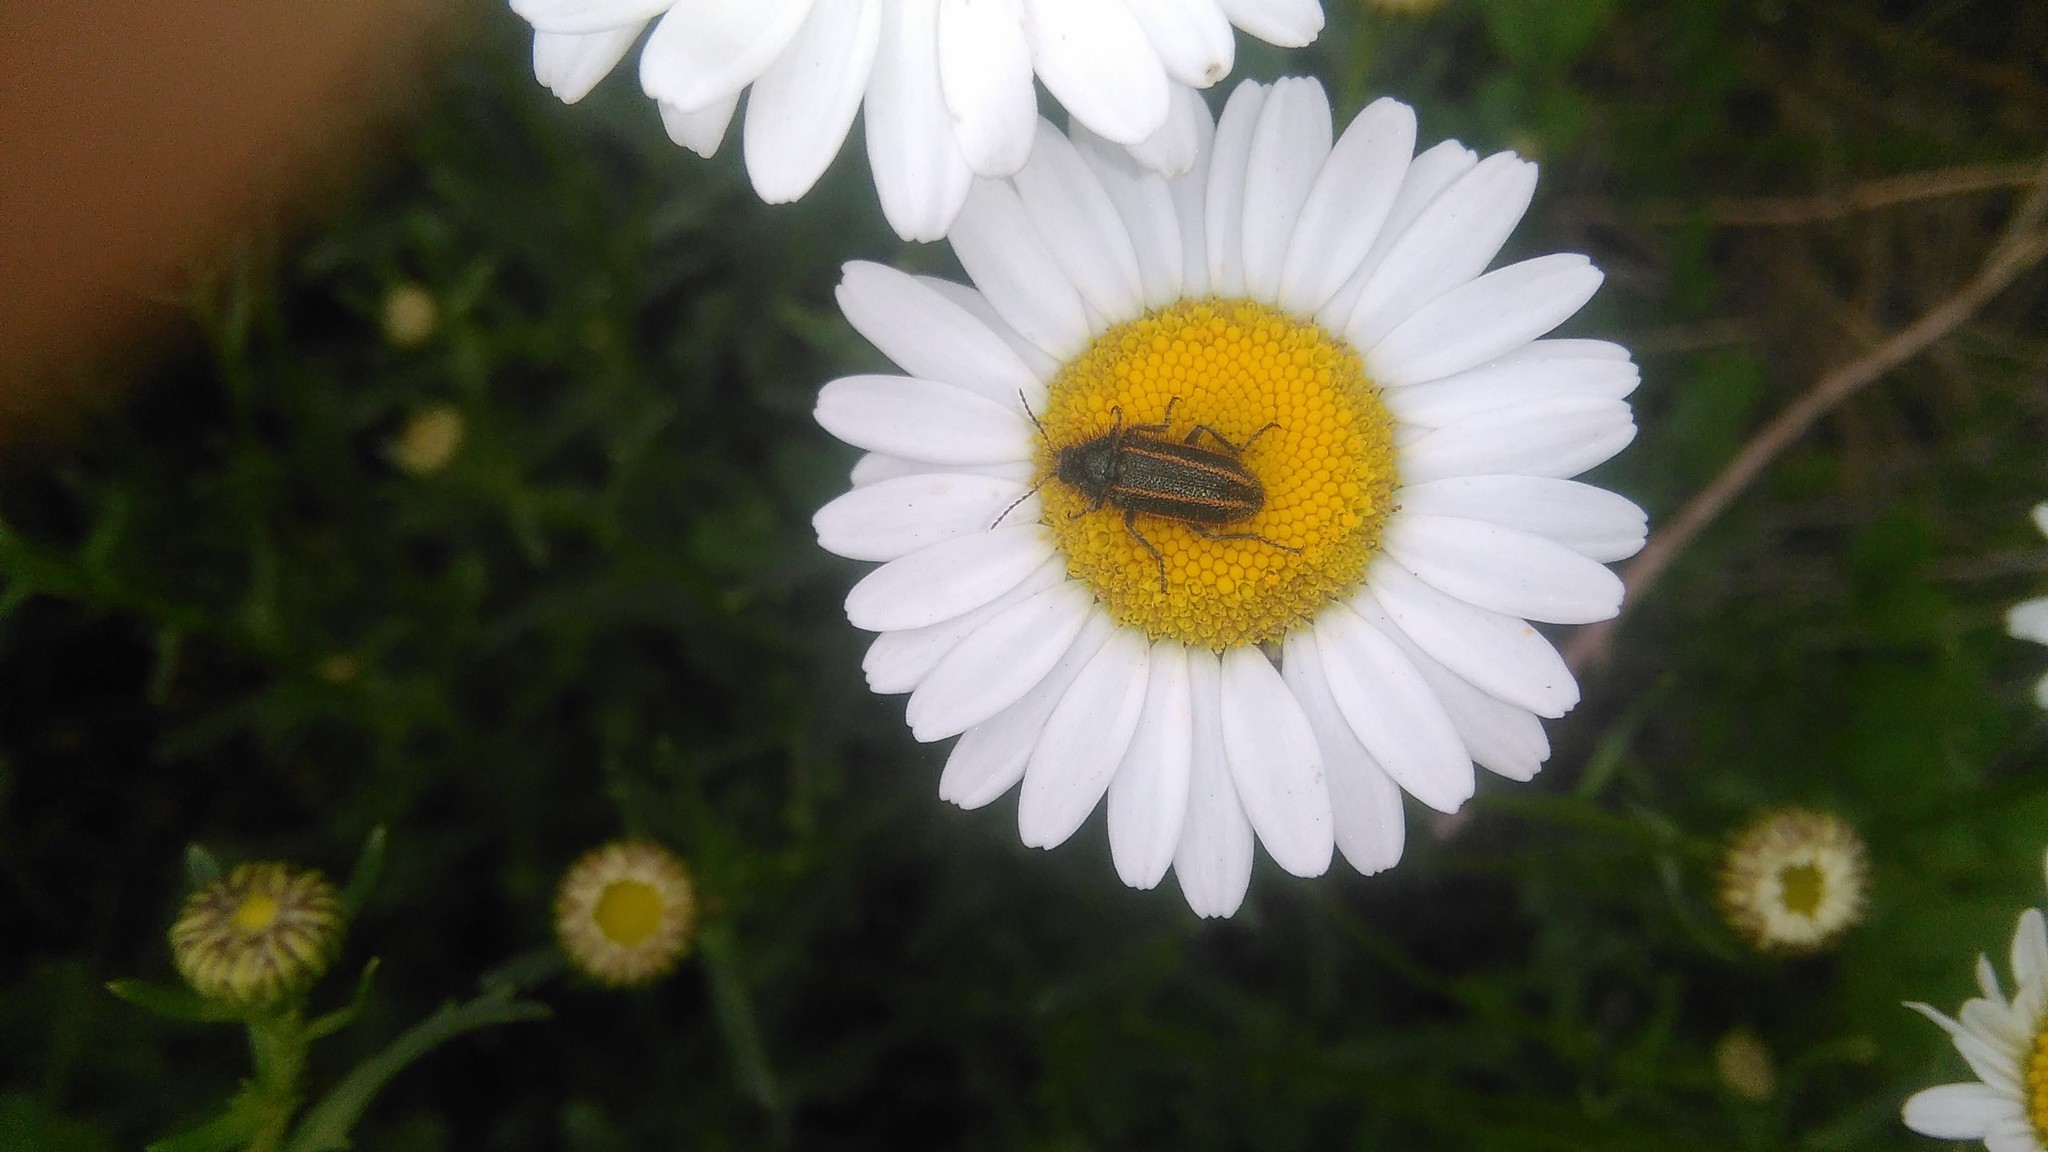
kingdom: Plantae
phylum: Tracheophyta
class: Magnoliopsida
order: Asterales
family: Asteraceae
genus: Leucanthemum
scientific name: Leucanthemum vulgare
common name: Oxeye daisy
